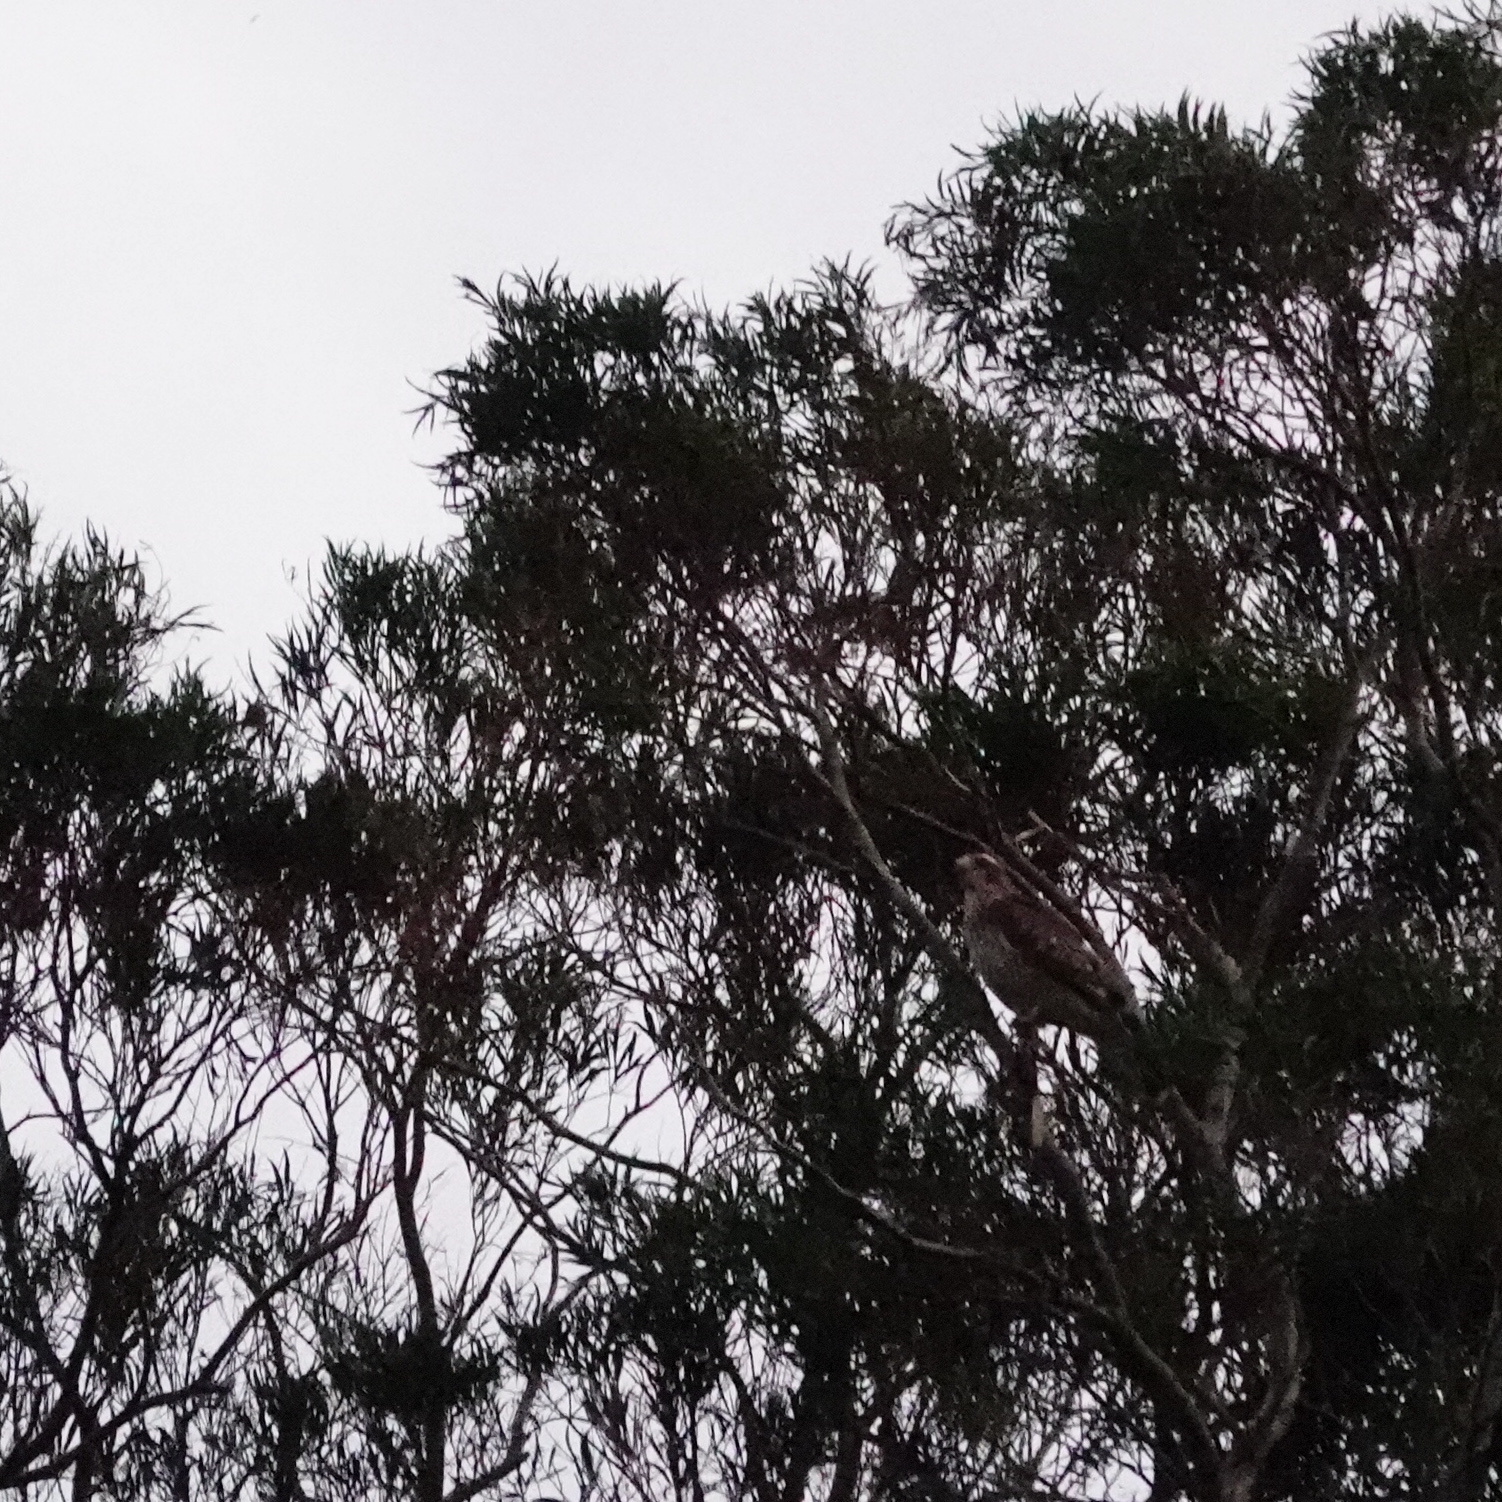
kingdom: Animalia
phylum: Chordata
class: Aves
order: Accipitriformes
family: Accipitridae
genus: Butastur
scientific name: Butastur indicus
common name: Grey-faced buzzard
